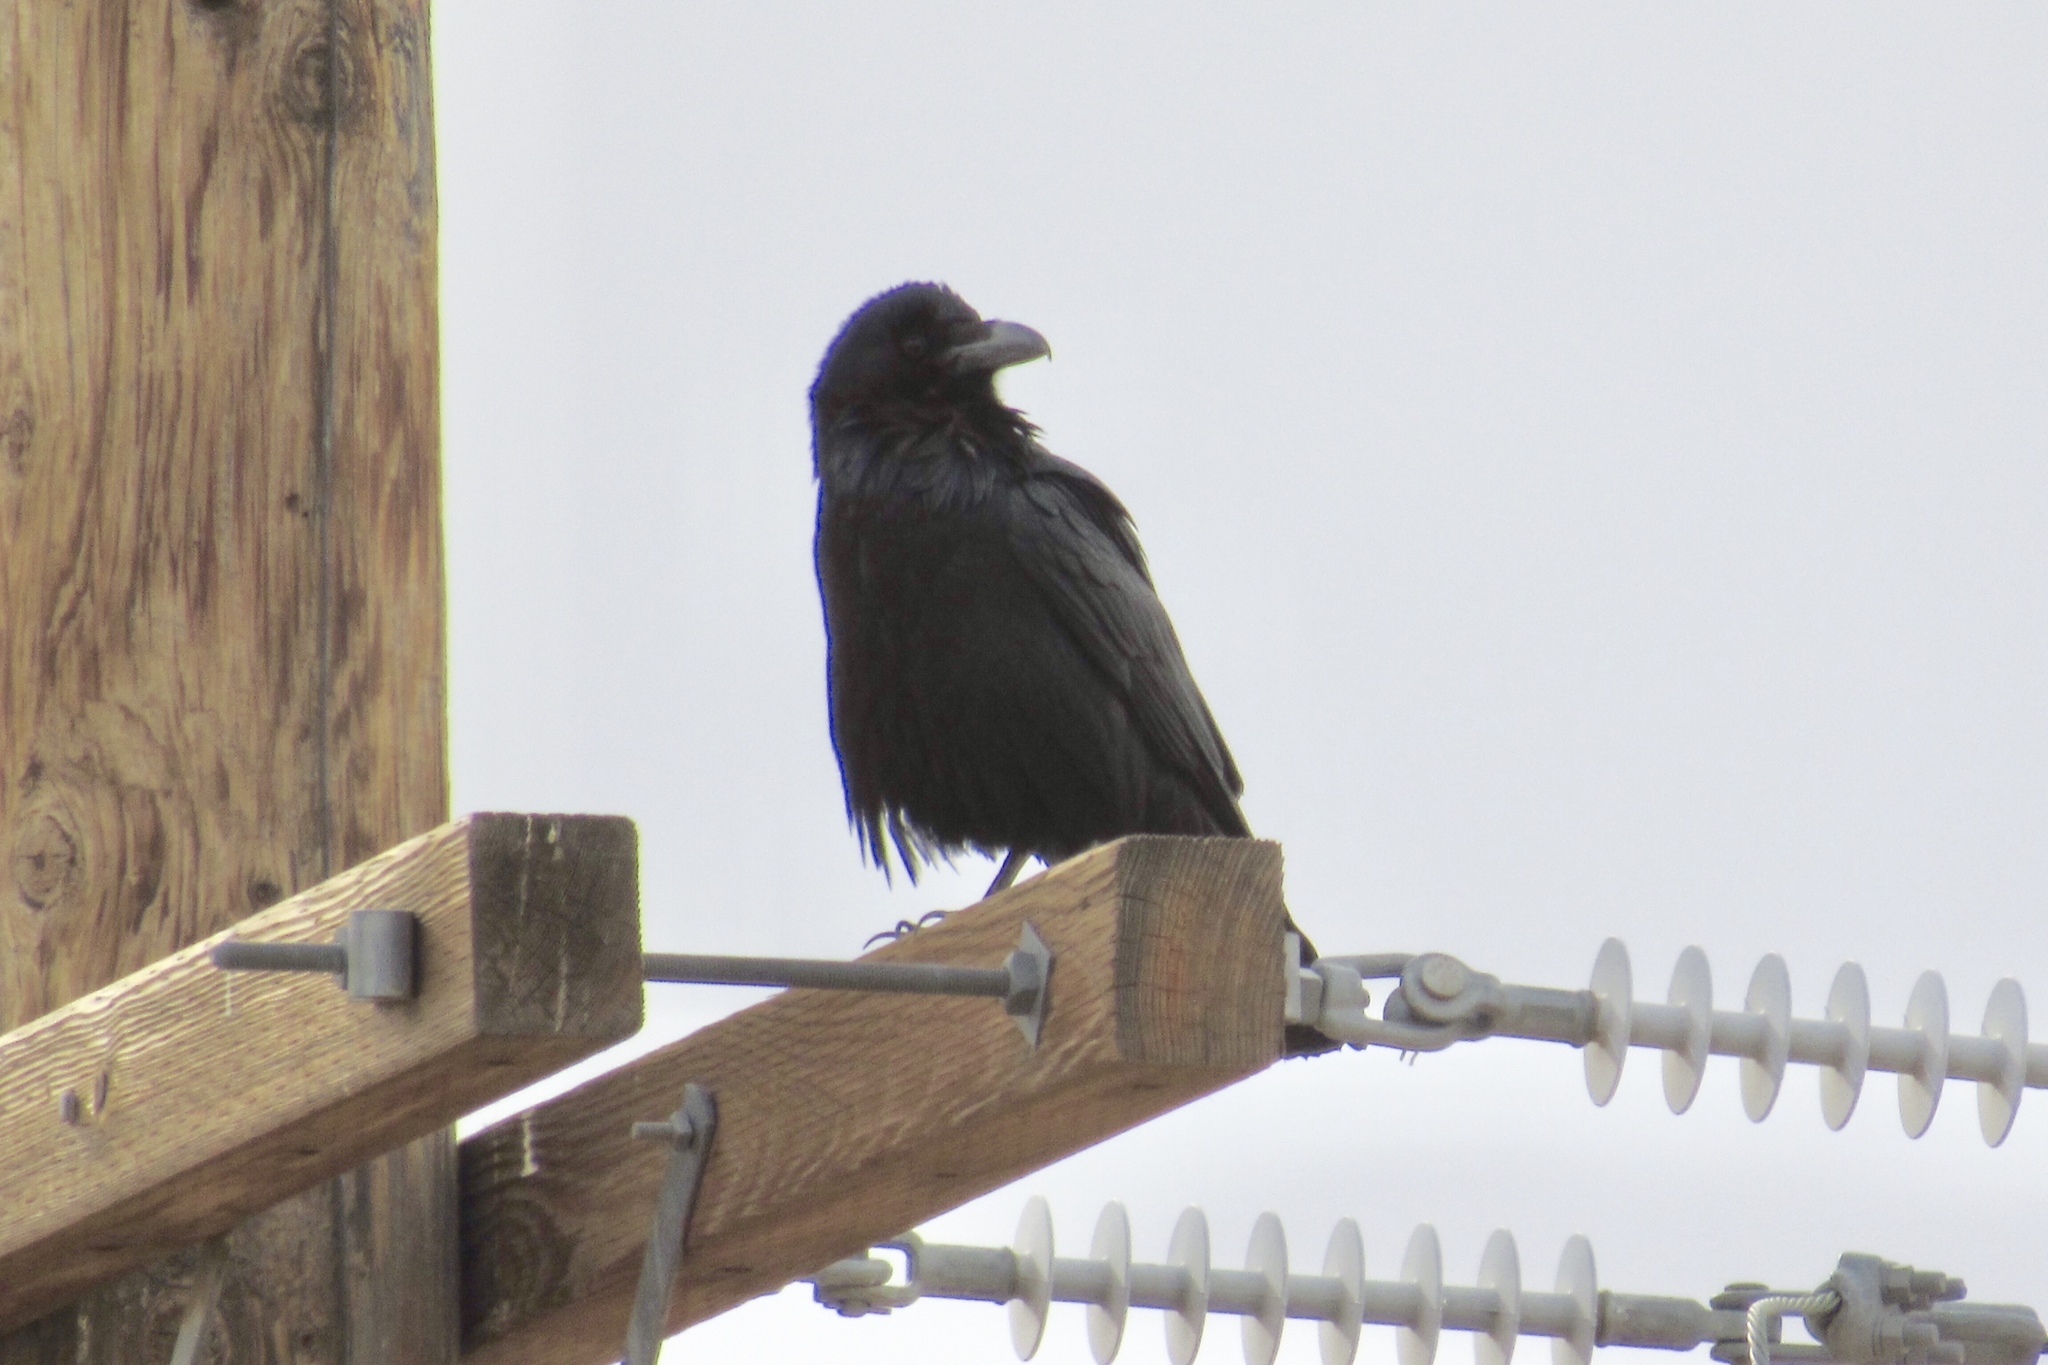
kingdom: Animalia
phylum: Chordata
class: Aves
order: Passeriformes
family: Corvidae
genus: Corvus
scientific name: Corvus corax
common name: Common raven
